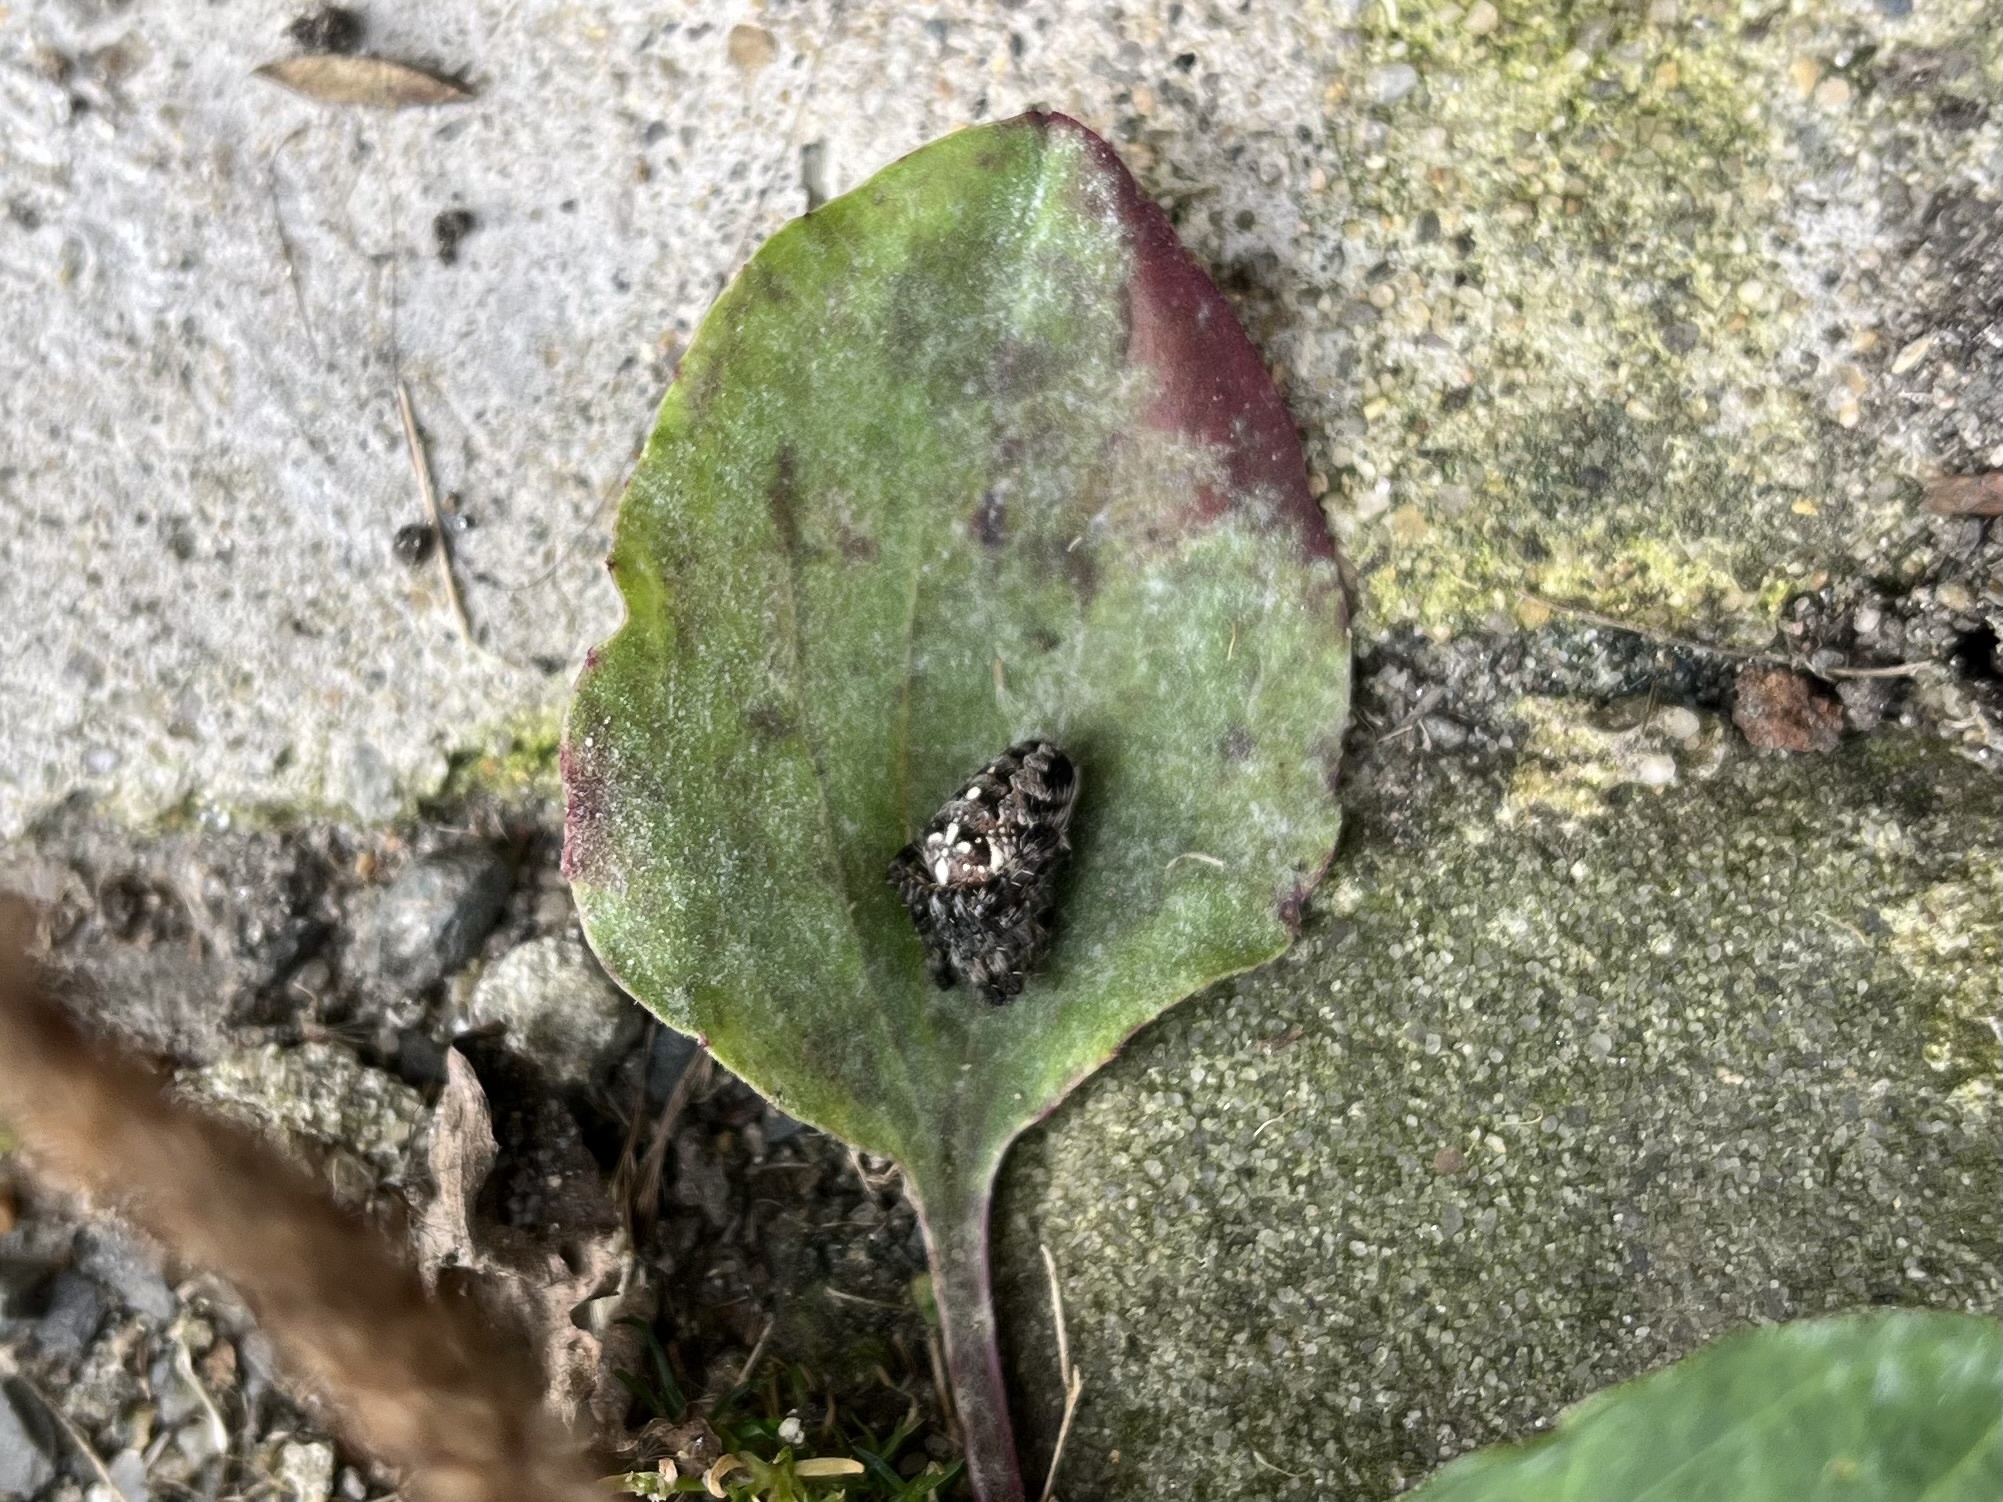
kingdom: Animalia
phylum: Arthropoda
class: Arachnida
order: Araneae
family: Araneidae
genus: Araneus
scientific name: Araneus diadematus
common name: Cross orbweaver
